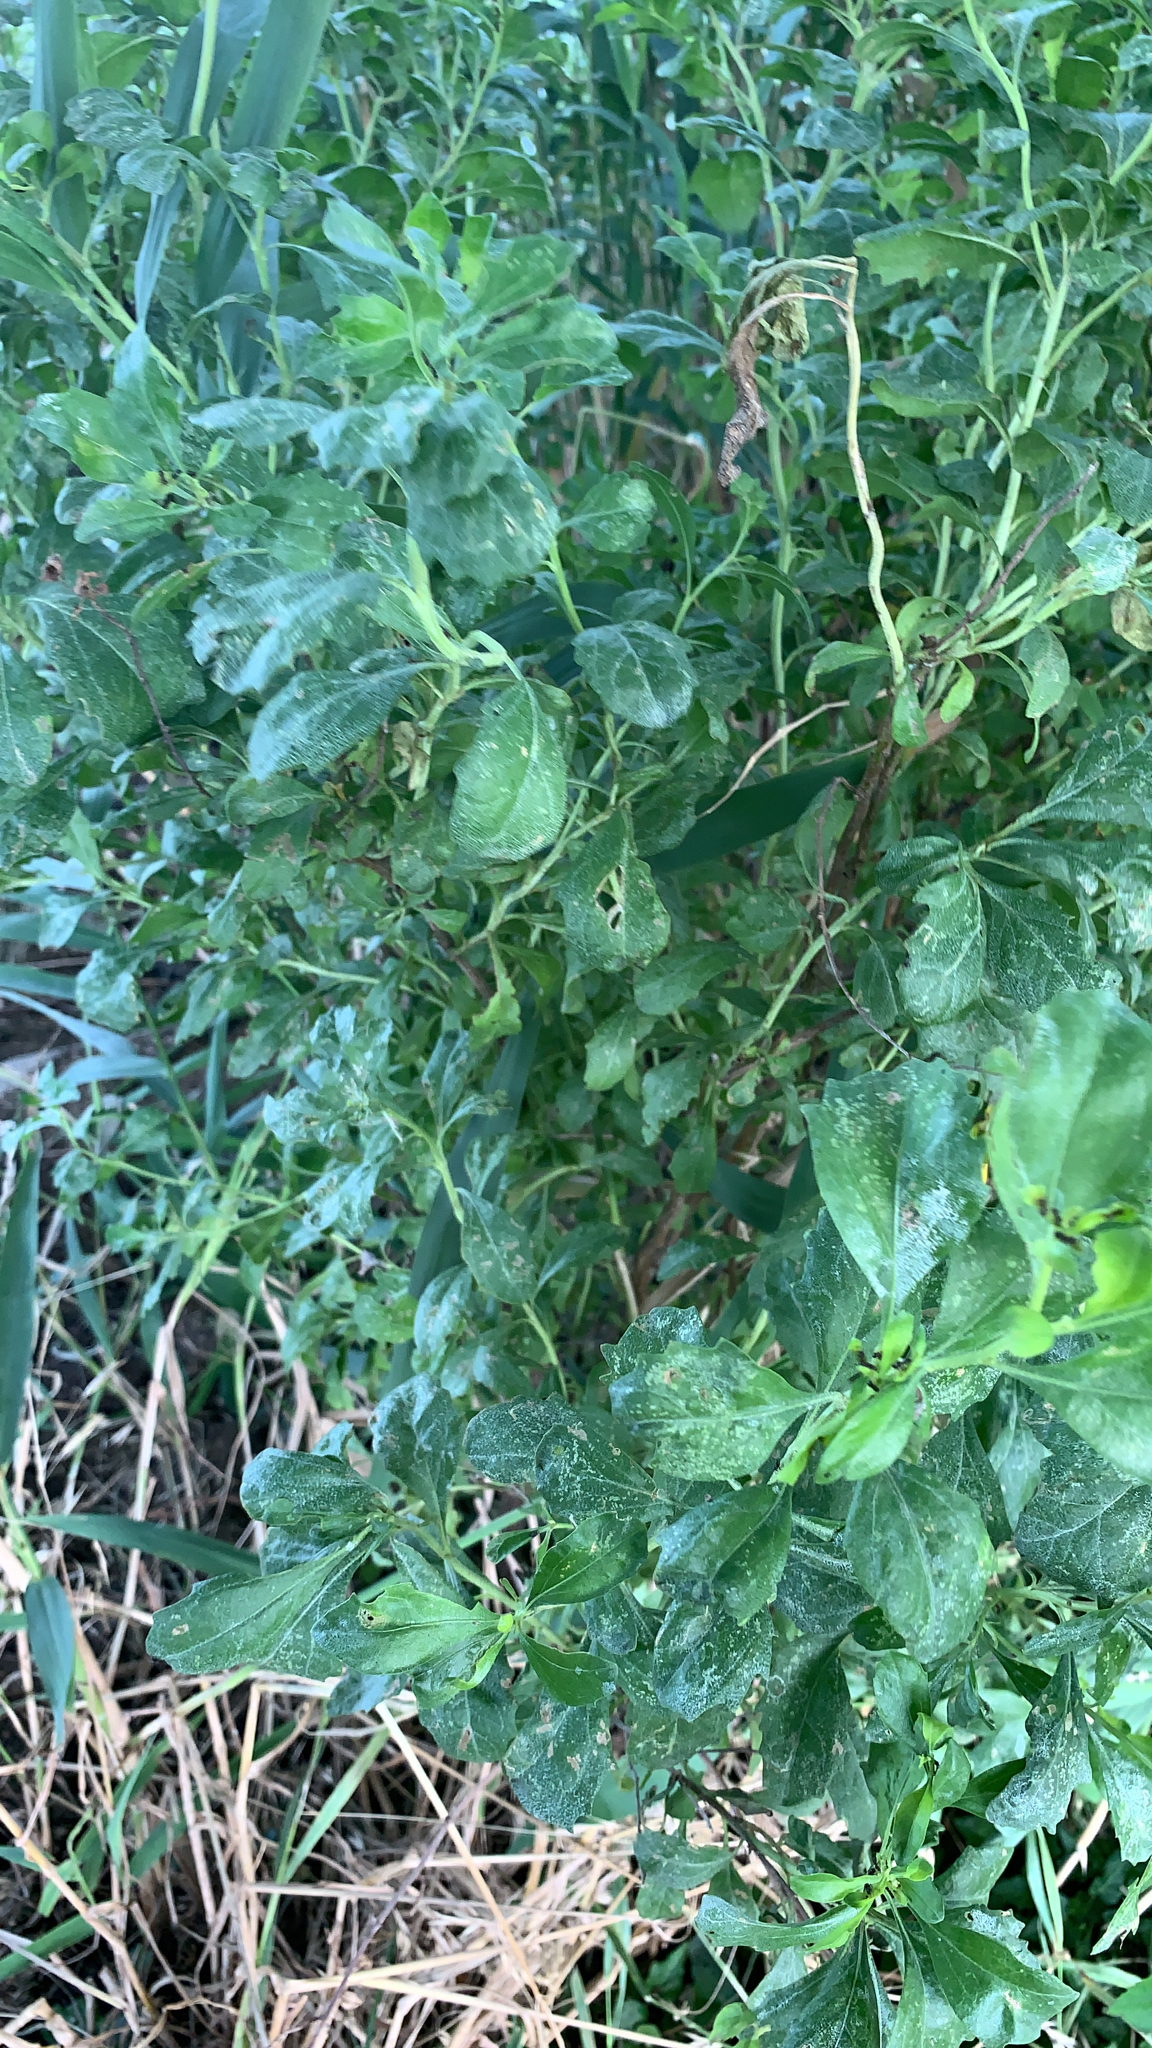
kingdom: Plantae
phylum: Tracheophyta
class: Magnoliopsida
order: Asterales
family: Asteraceae
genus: Baccharis
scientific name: Baccharis halimifolia
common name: Eastern baccharis
